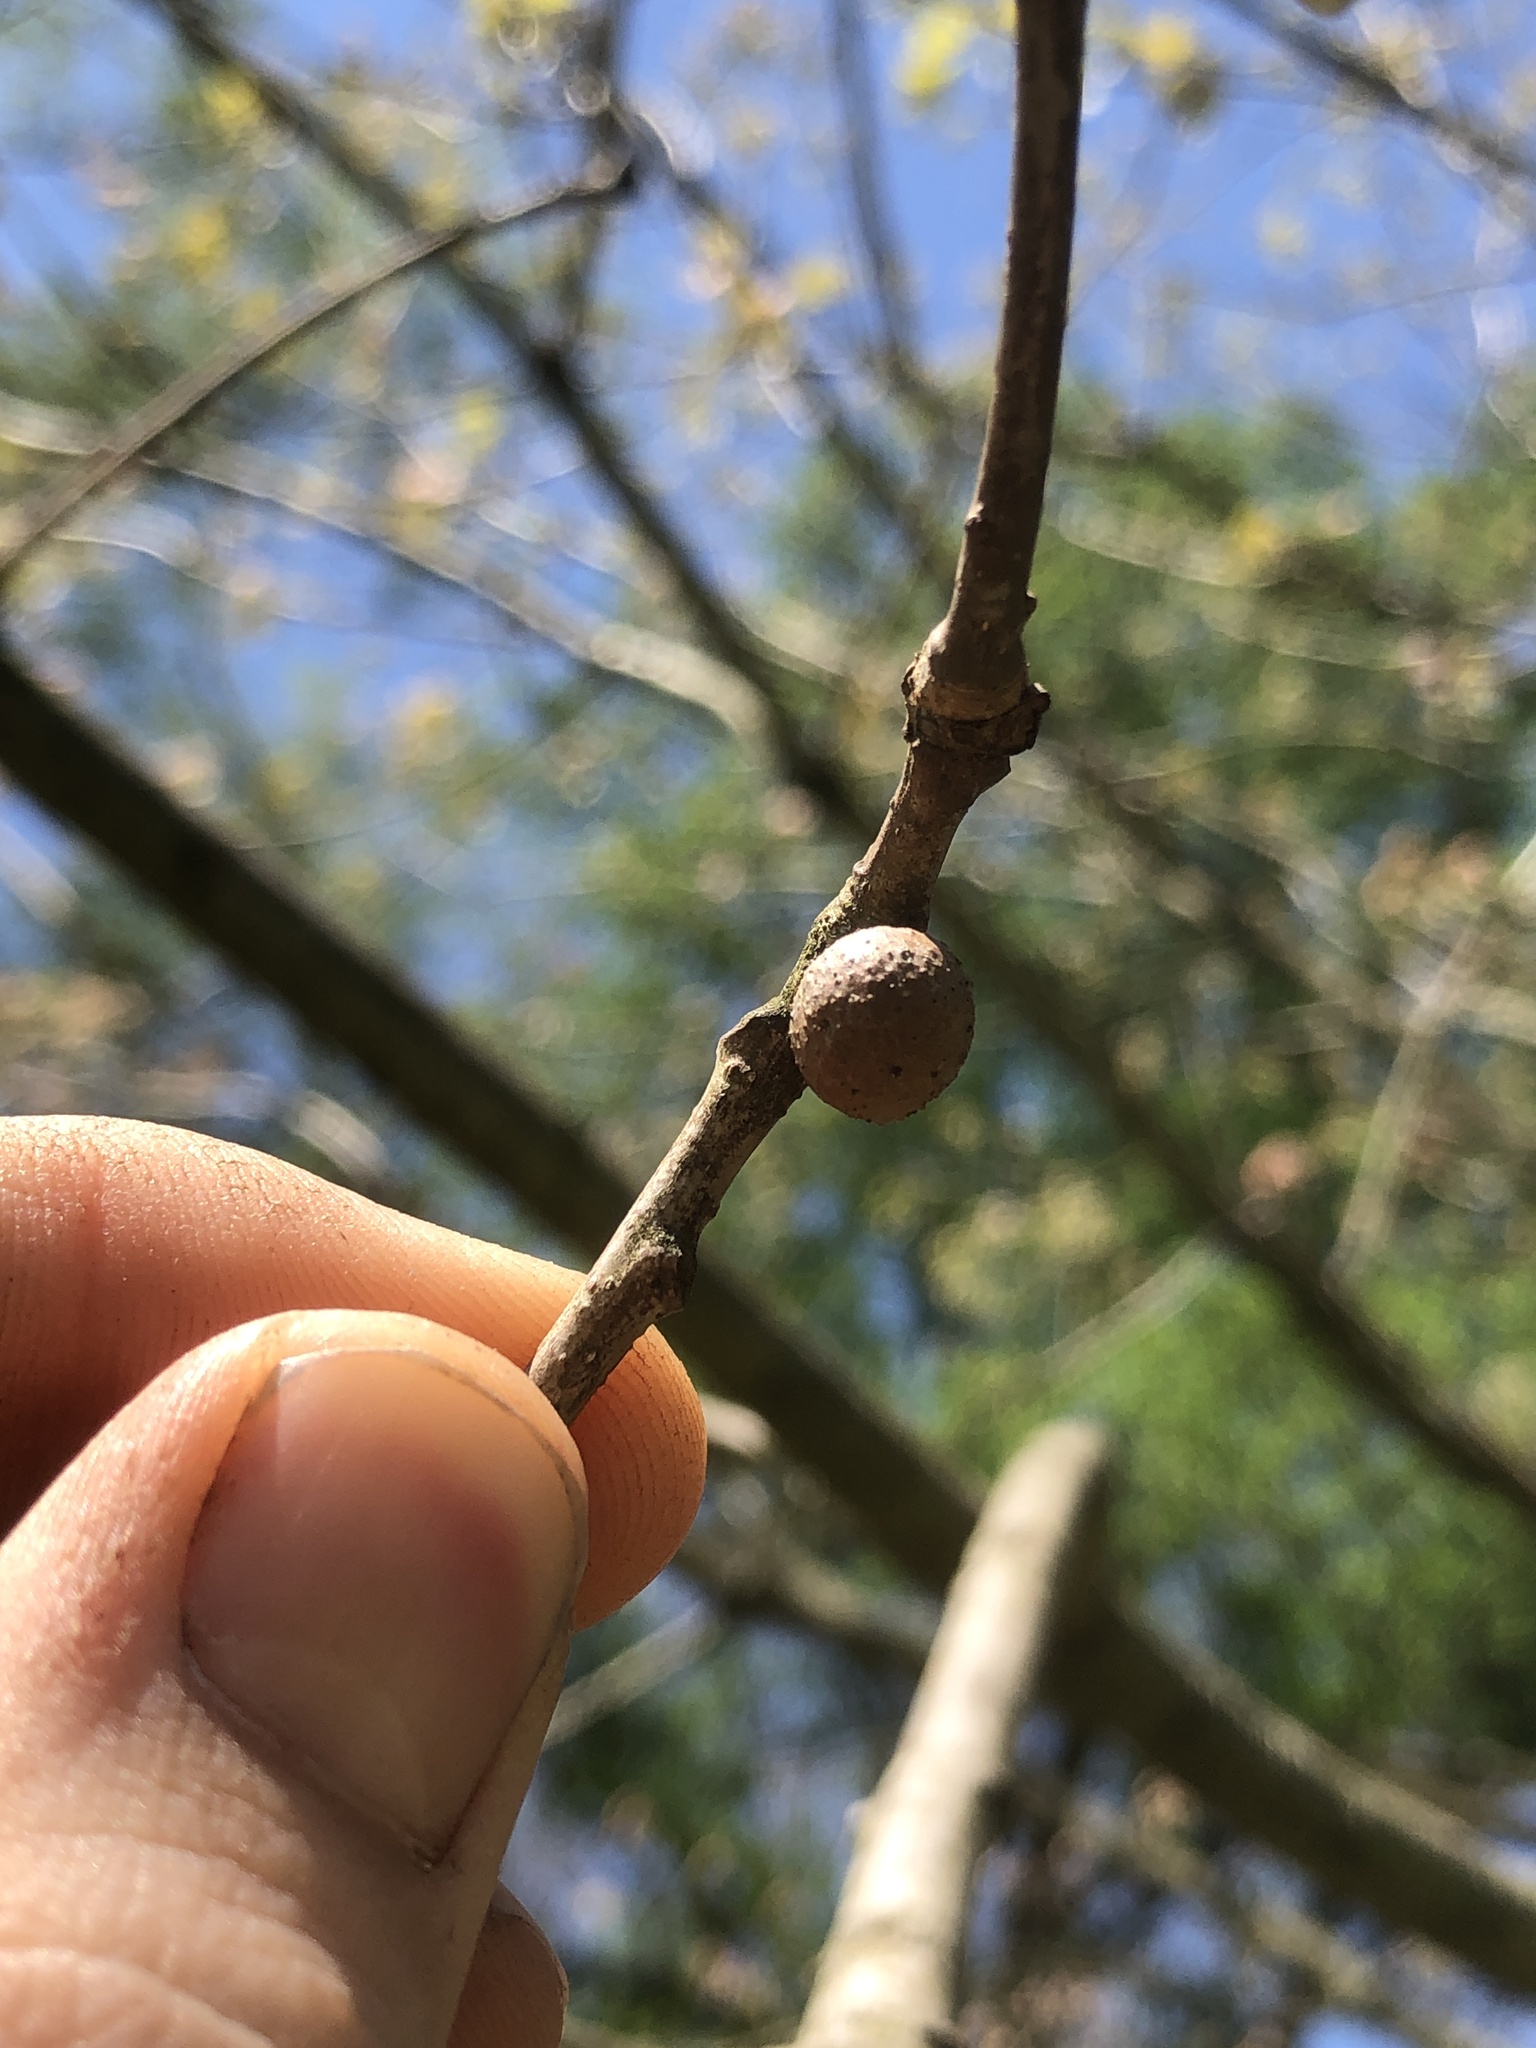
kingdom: Animalia
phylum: Arthropoda
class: Insecta
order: Hymenoptera
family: Cynipidae
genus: Disholcaspis
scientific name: Disholcaspis quercusglobulus
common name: Round bullet gall wasp
